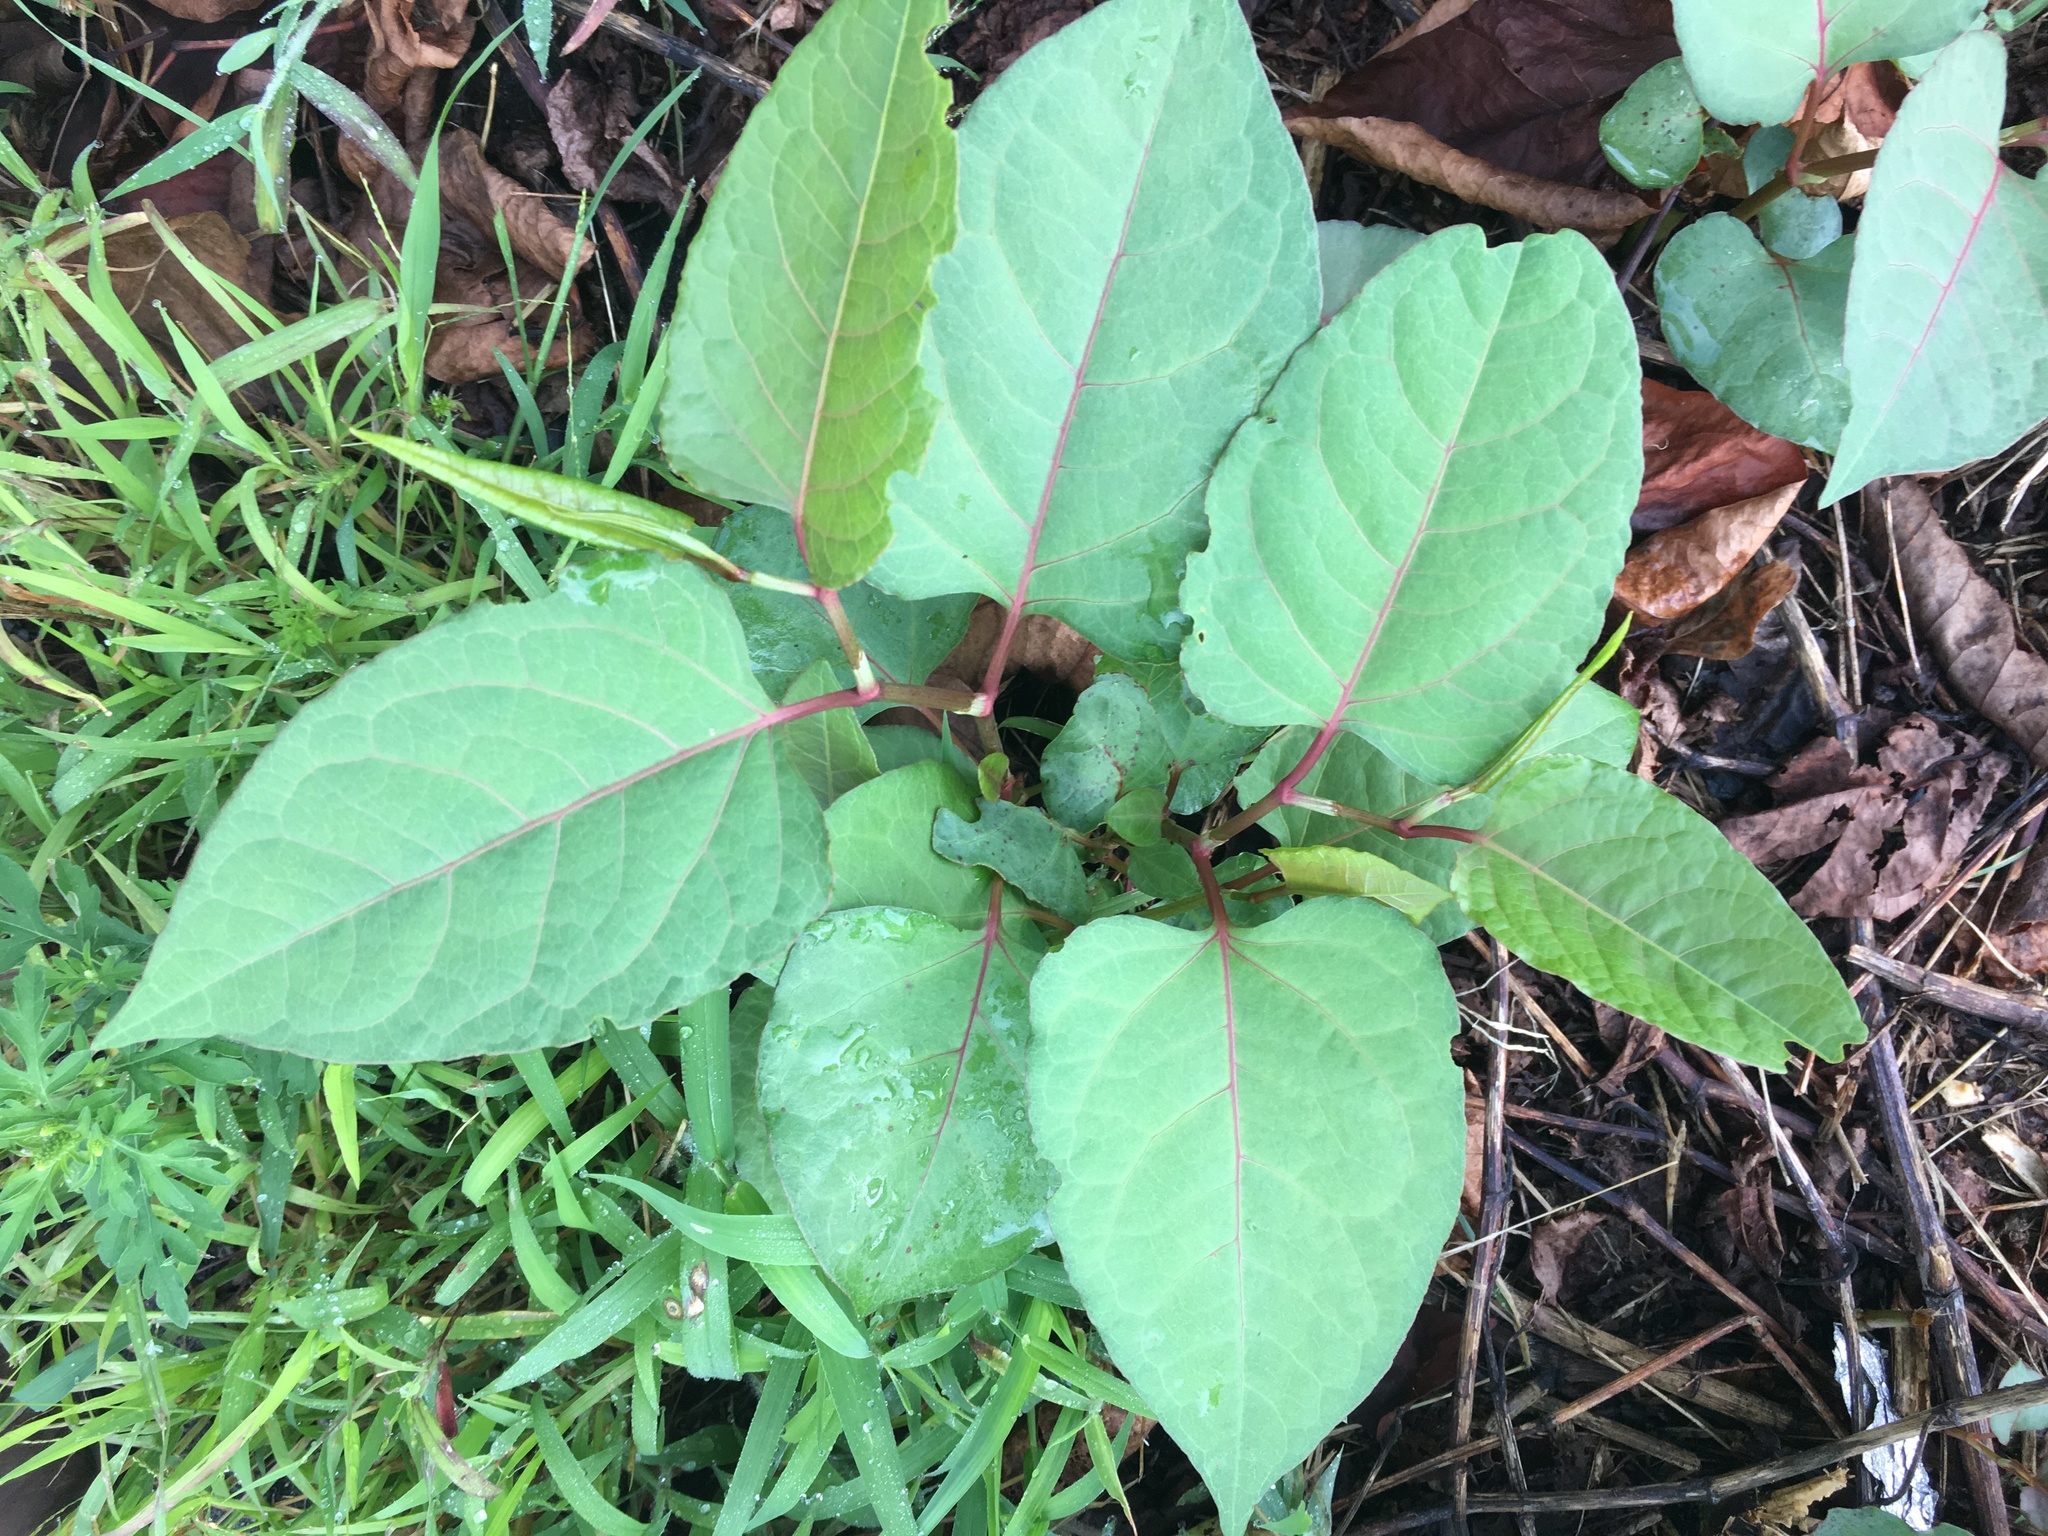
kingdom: Plantae
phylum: Tracheophyta
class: Magnoliopsida
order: Caryophyllales
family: Polygonaceae
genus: Reynoutria
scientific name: Reynoutria japonica
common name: Japanese knotweed
